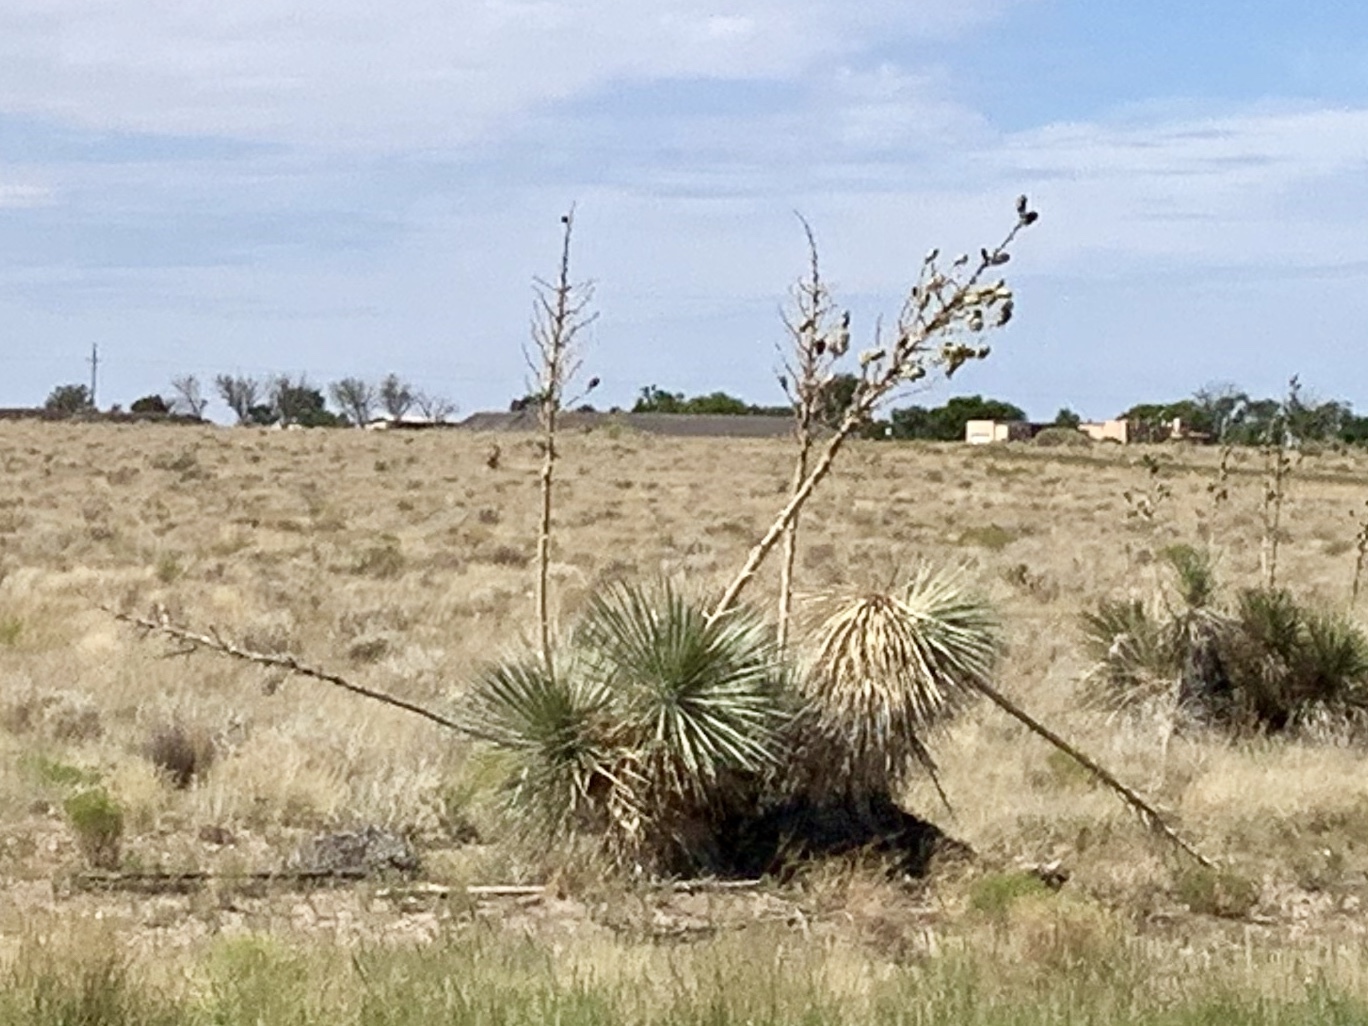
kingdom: Plantae
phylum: Tracheophyta
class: Liliopsida
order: Asparagales
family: Asparagaceae
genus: Yucca
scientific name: Yucca elata
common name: Palmella
